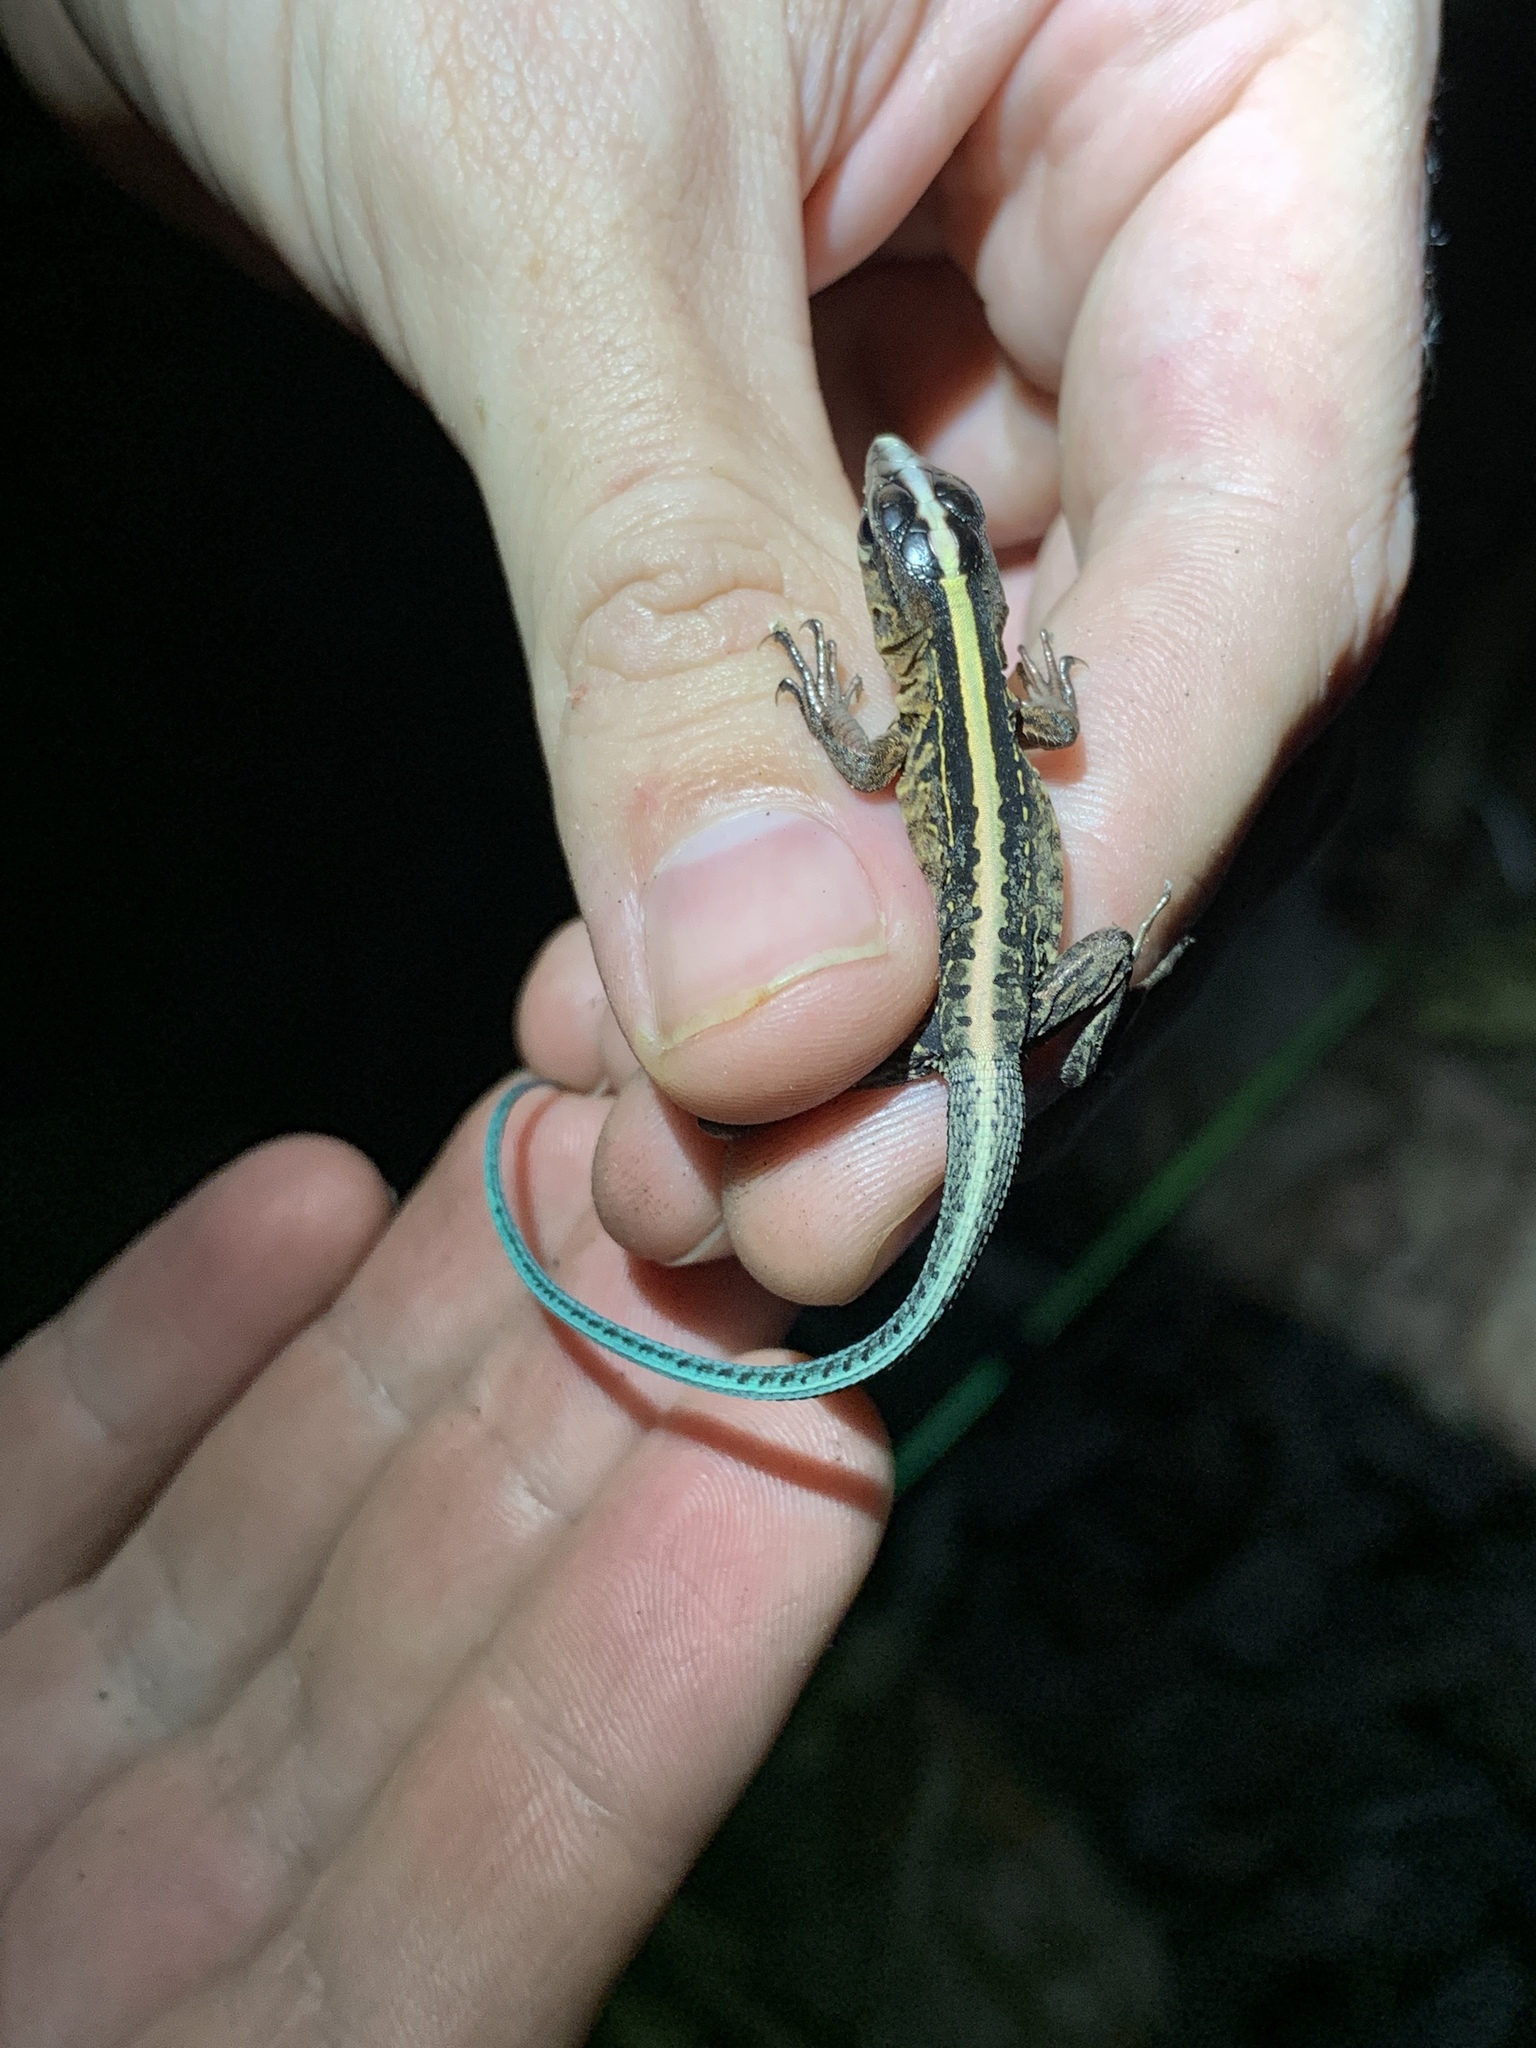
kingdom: Animalia
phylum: Chordata
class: Squamata
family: Teiidae
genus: Holcosus
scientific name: Holcosus festivus
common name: Middle american ameiva
